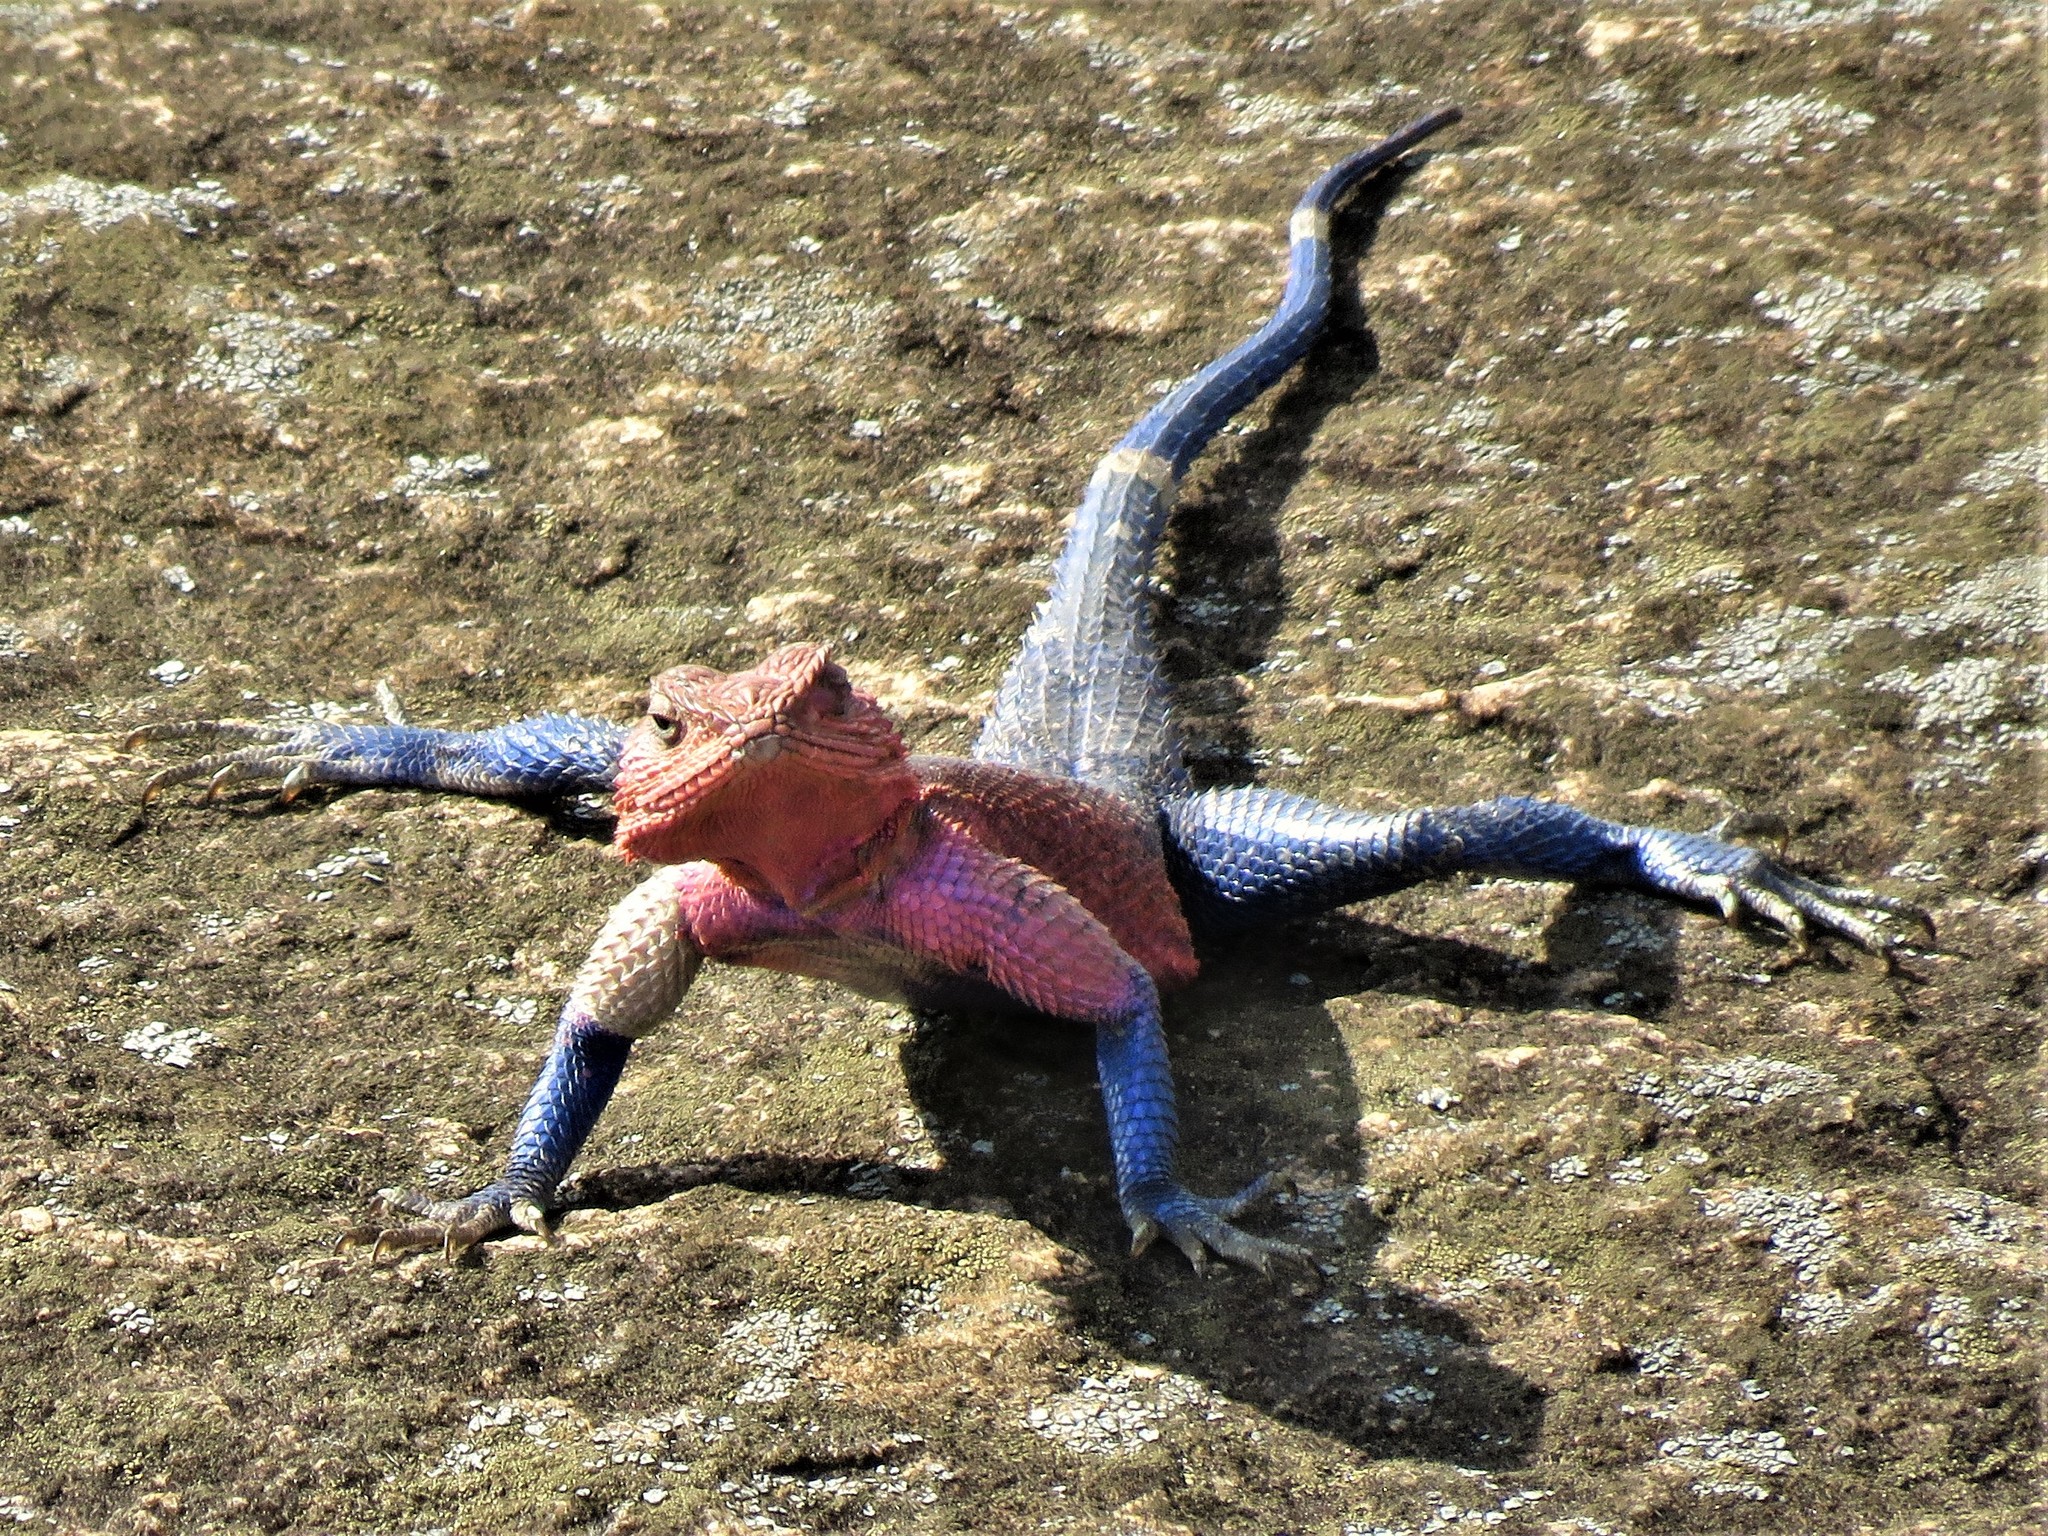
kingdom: Animalia
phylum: Chordata
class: Squamata
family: Agamidae
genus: Agama
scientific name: Agama mwanzae
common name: Mwanza flat-headed agama
